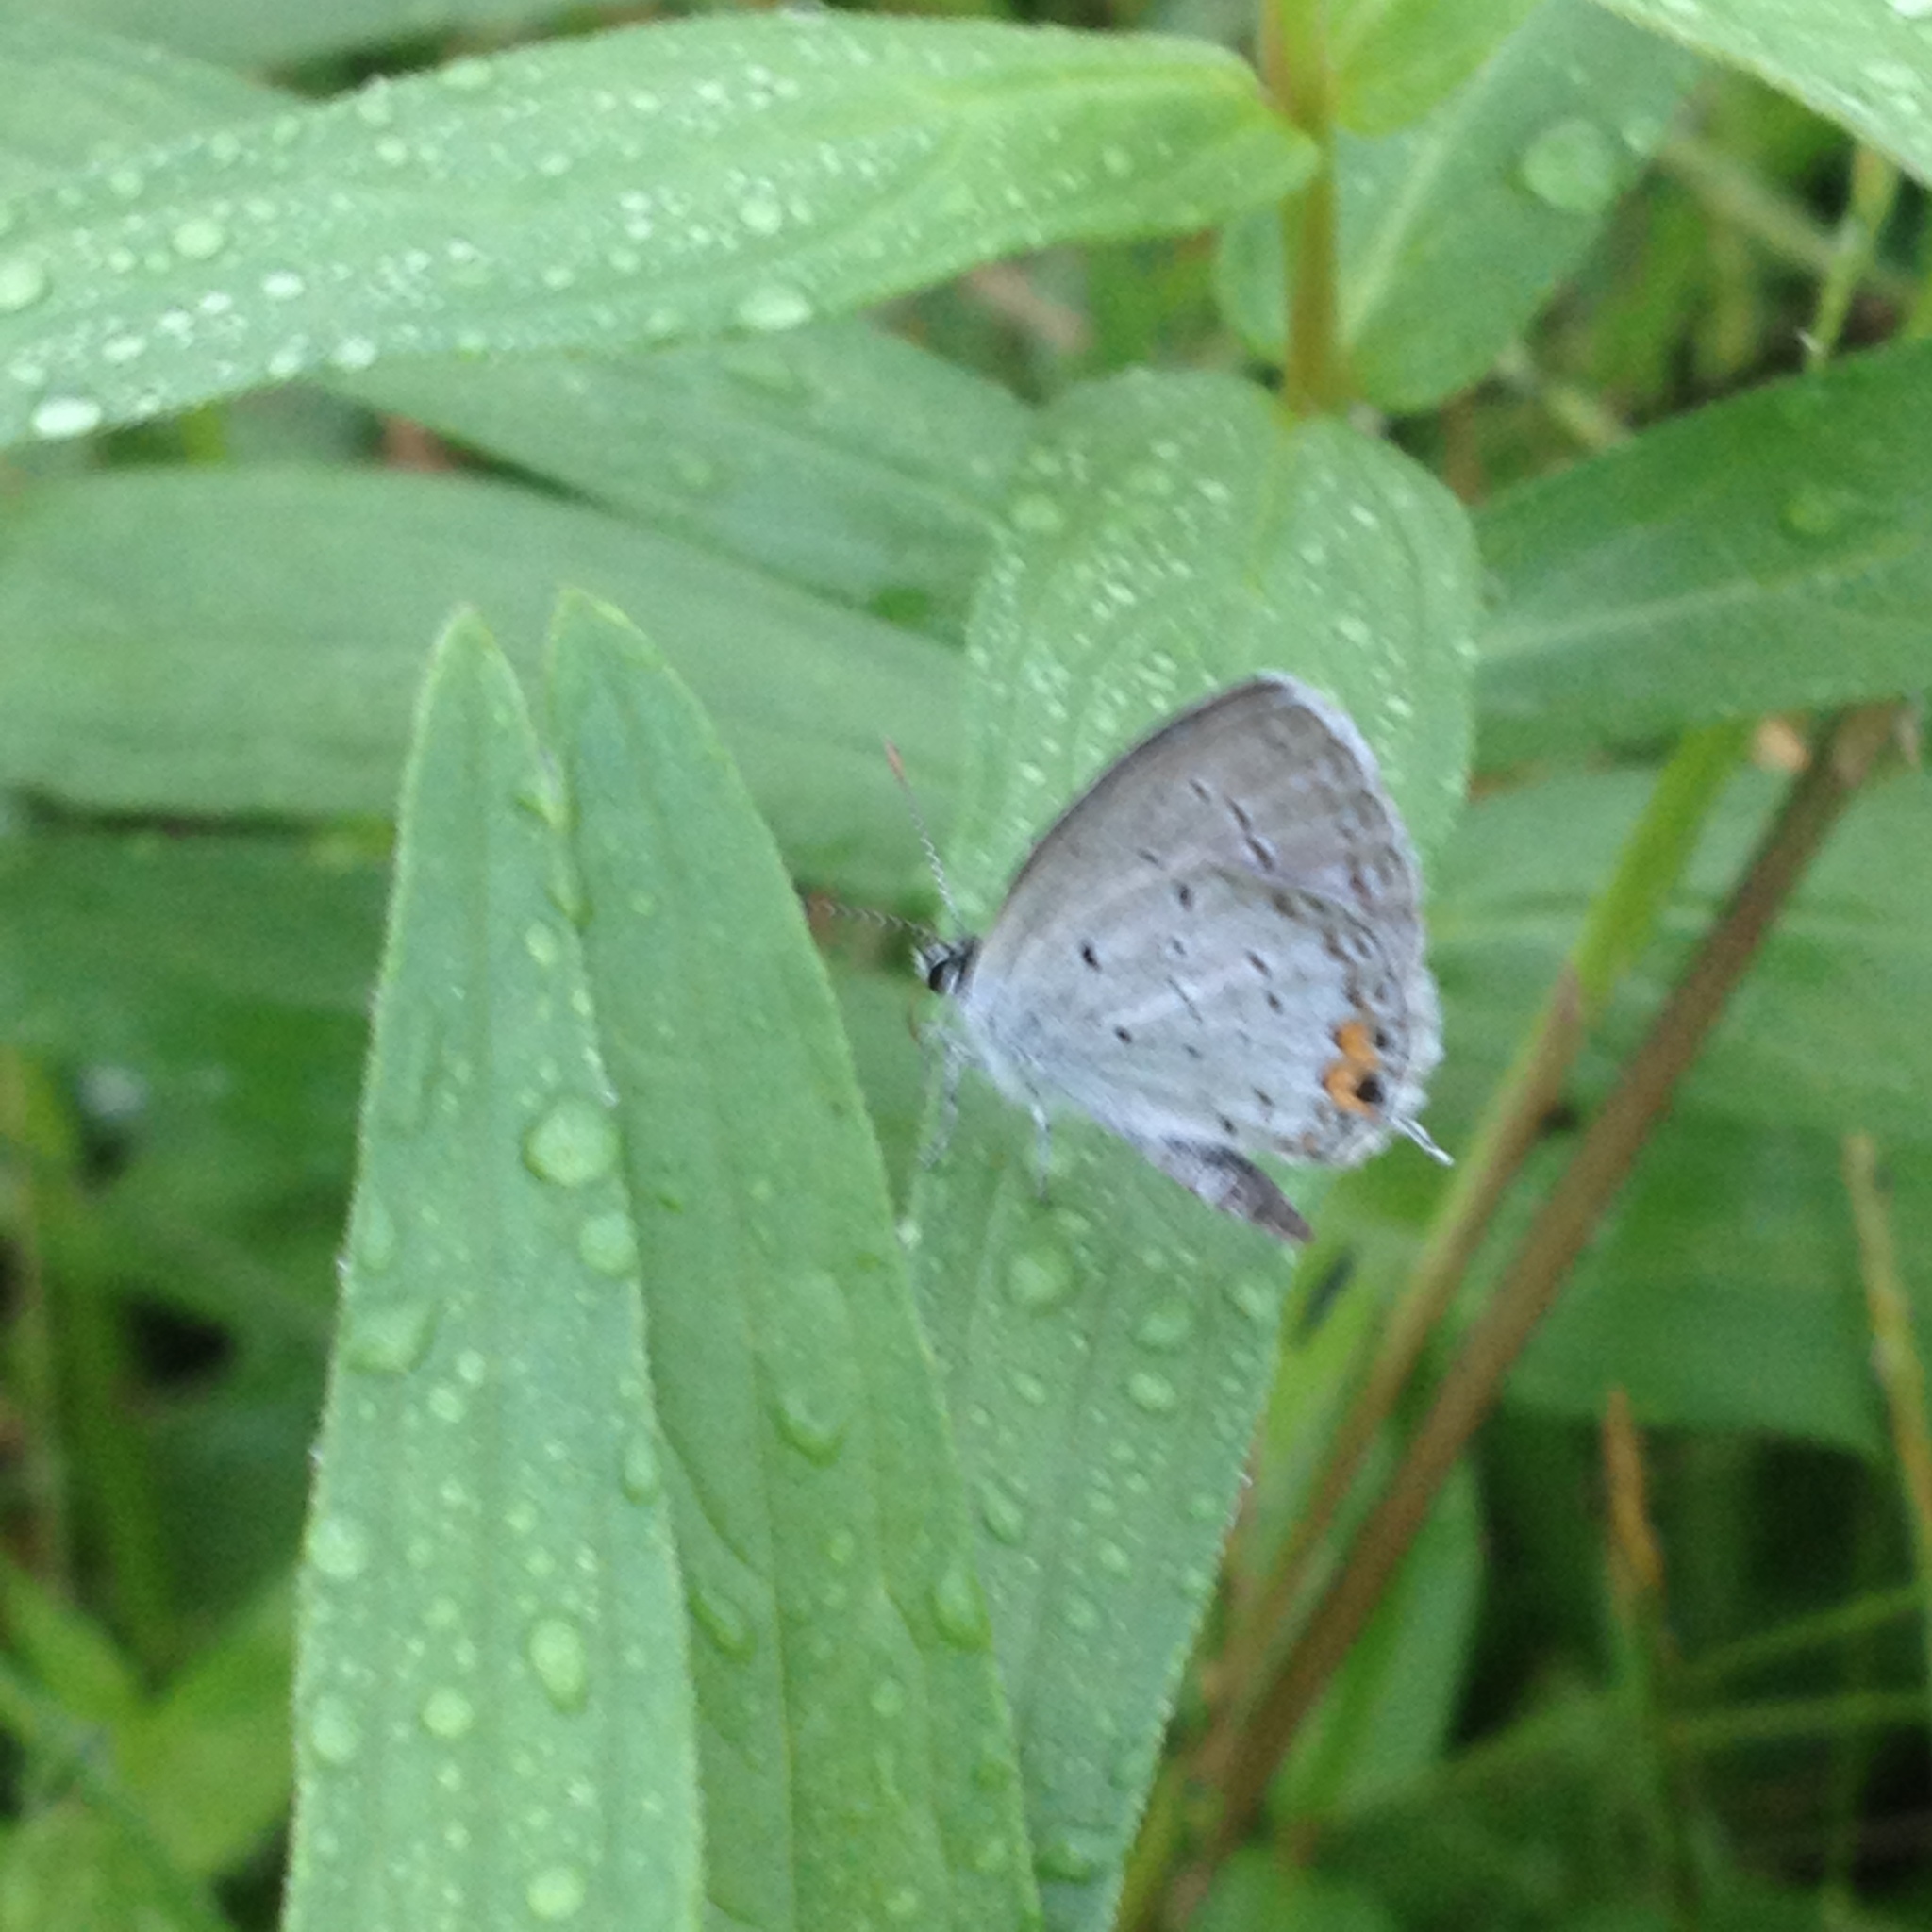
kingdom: Animalia
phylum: Arthropoda
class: Insecta
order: Lepidoptera
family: Lycaenidae
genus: Elkalyce
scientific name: Elkalyce comyntas
